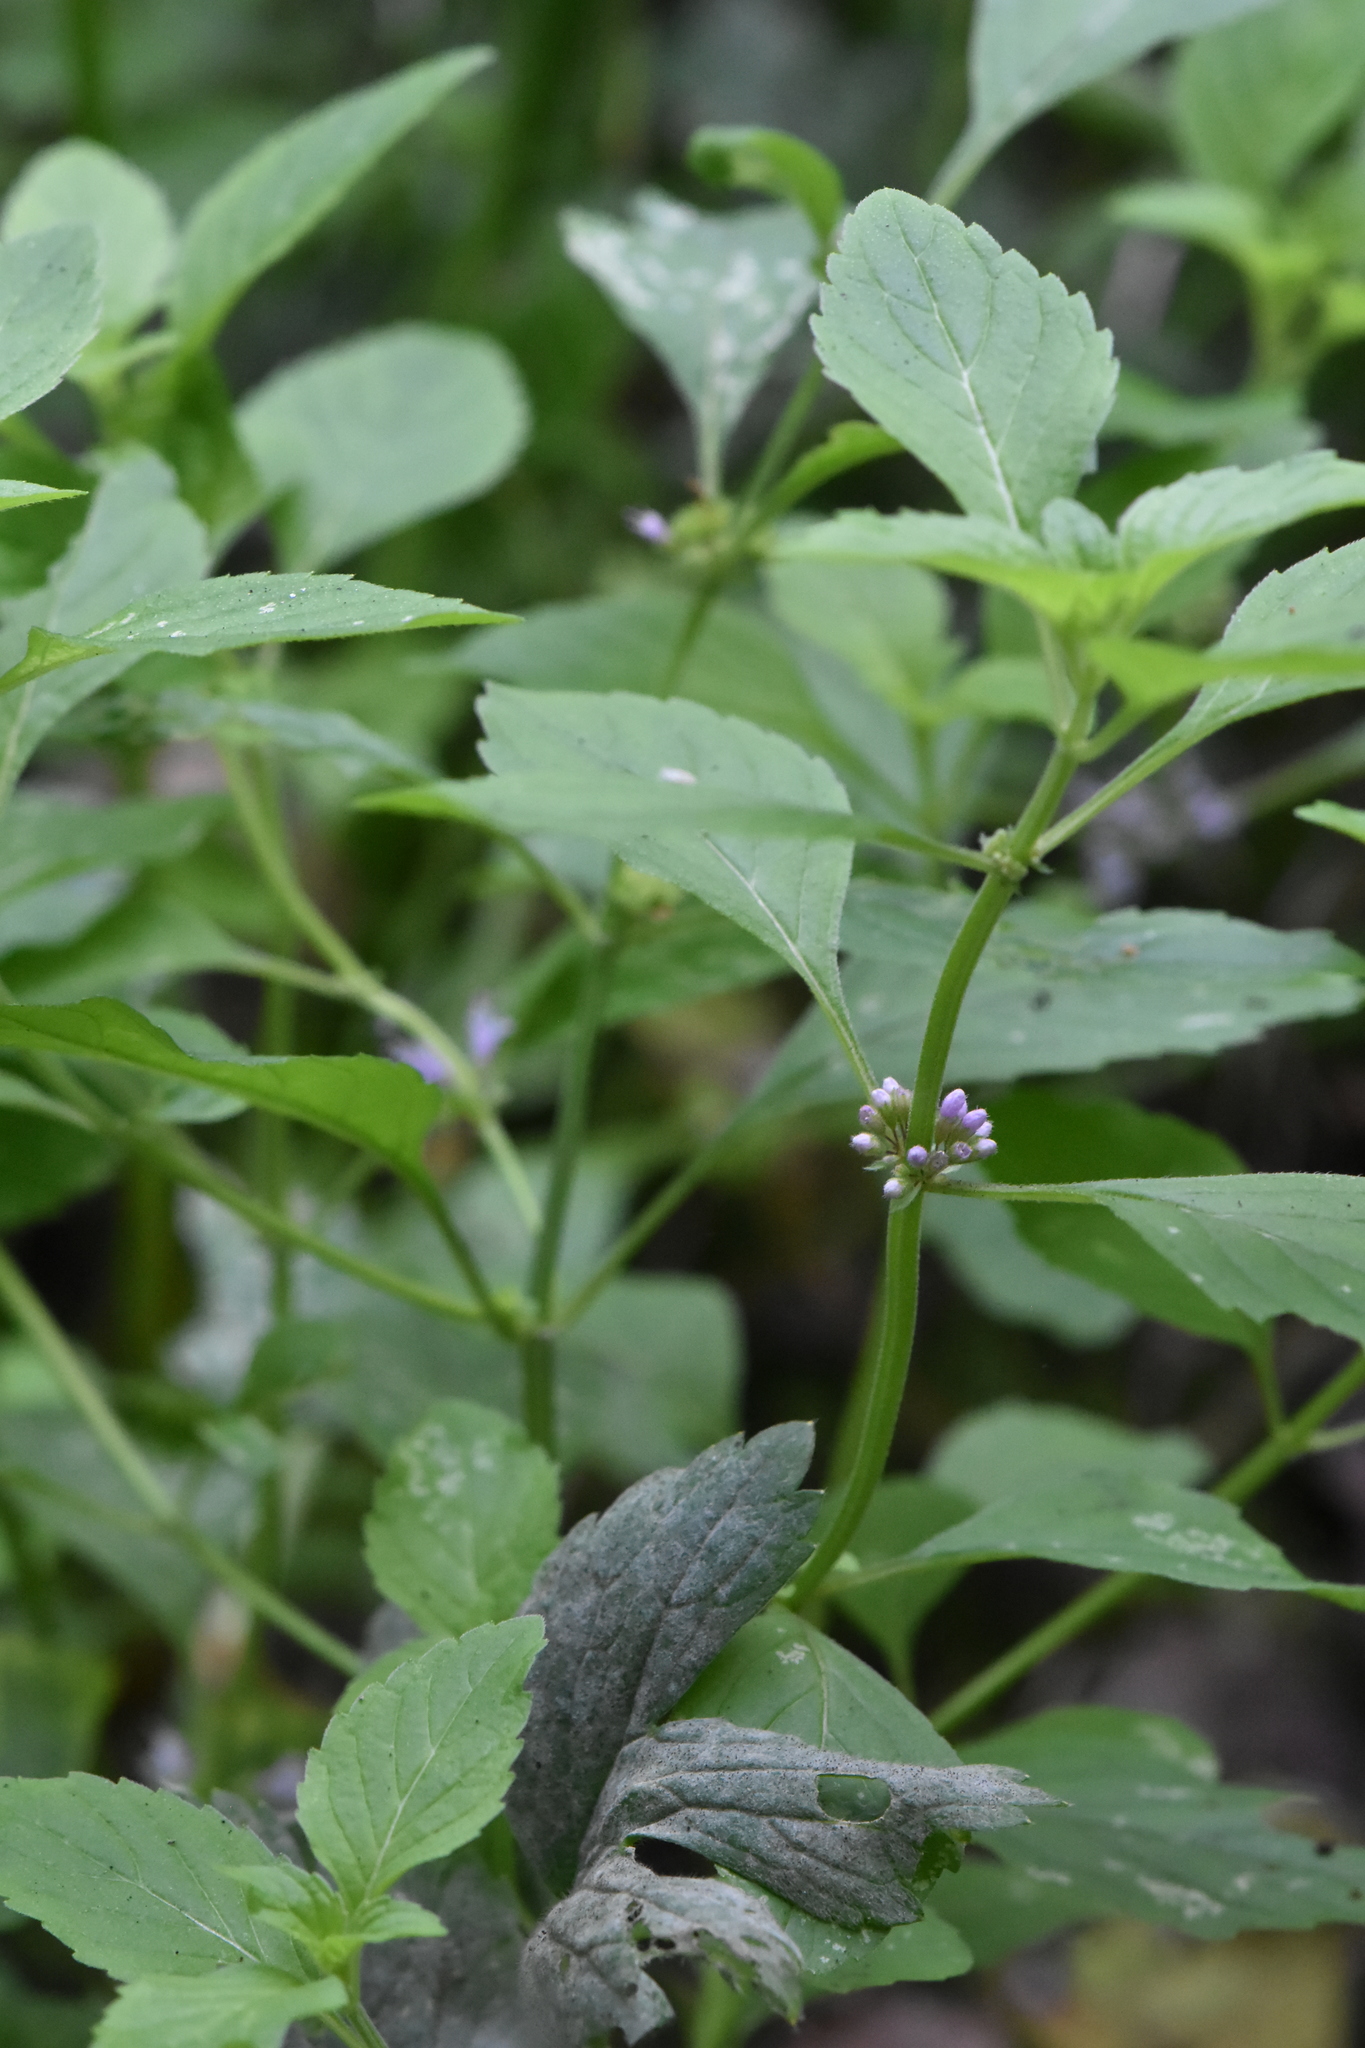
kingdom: Plantae
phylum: Tracheophyta
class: Magnoliopsida
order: Lamiales
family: Lamiaceae
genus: Mentha
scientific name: Mentha arvensis
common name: Corn mint
